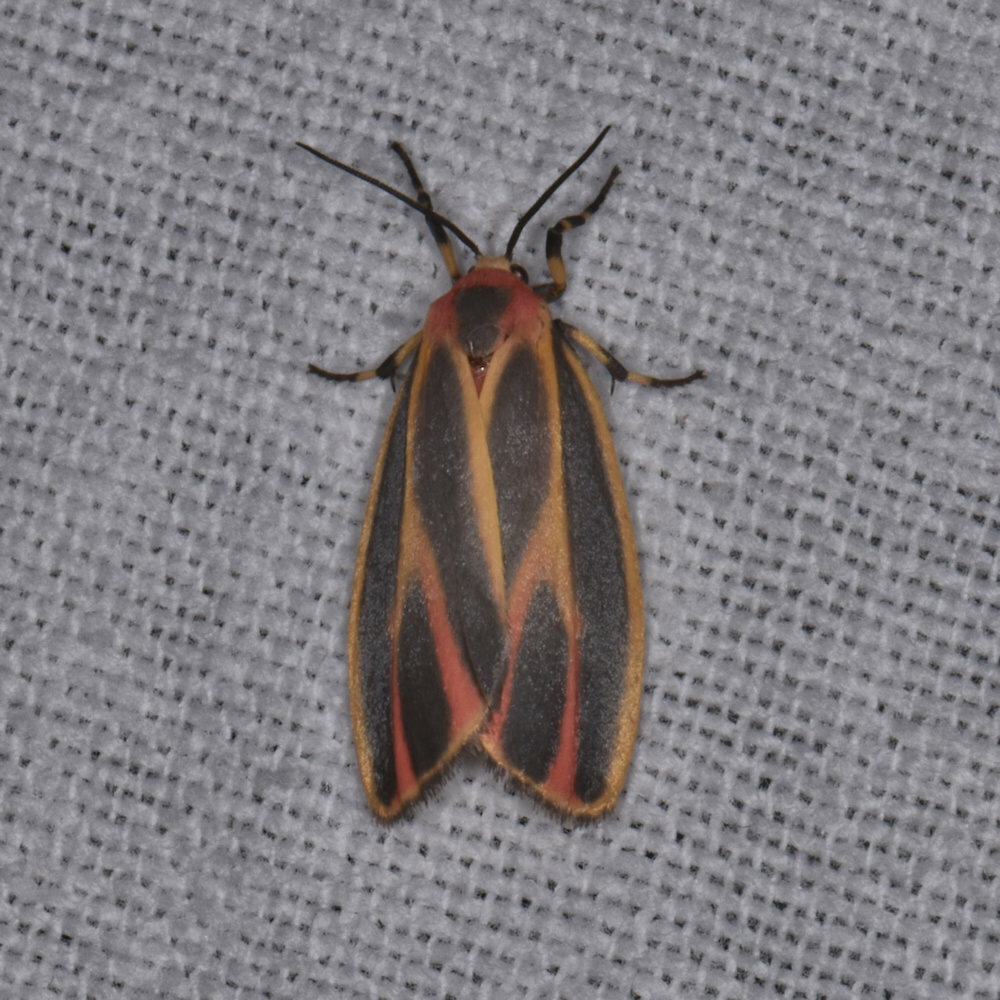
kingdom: Animalia
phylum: Arthropoda
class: Insecta
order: Lepidoptera
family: Erebidae
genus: Hypoprepia
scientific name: Hypoprepia fucosa
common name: Painted lichen moth
